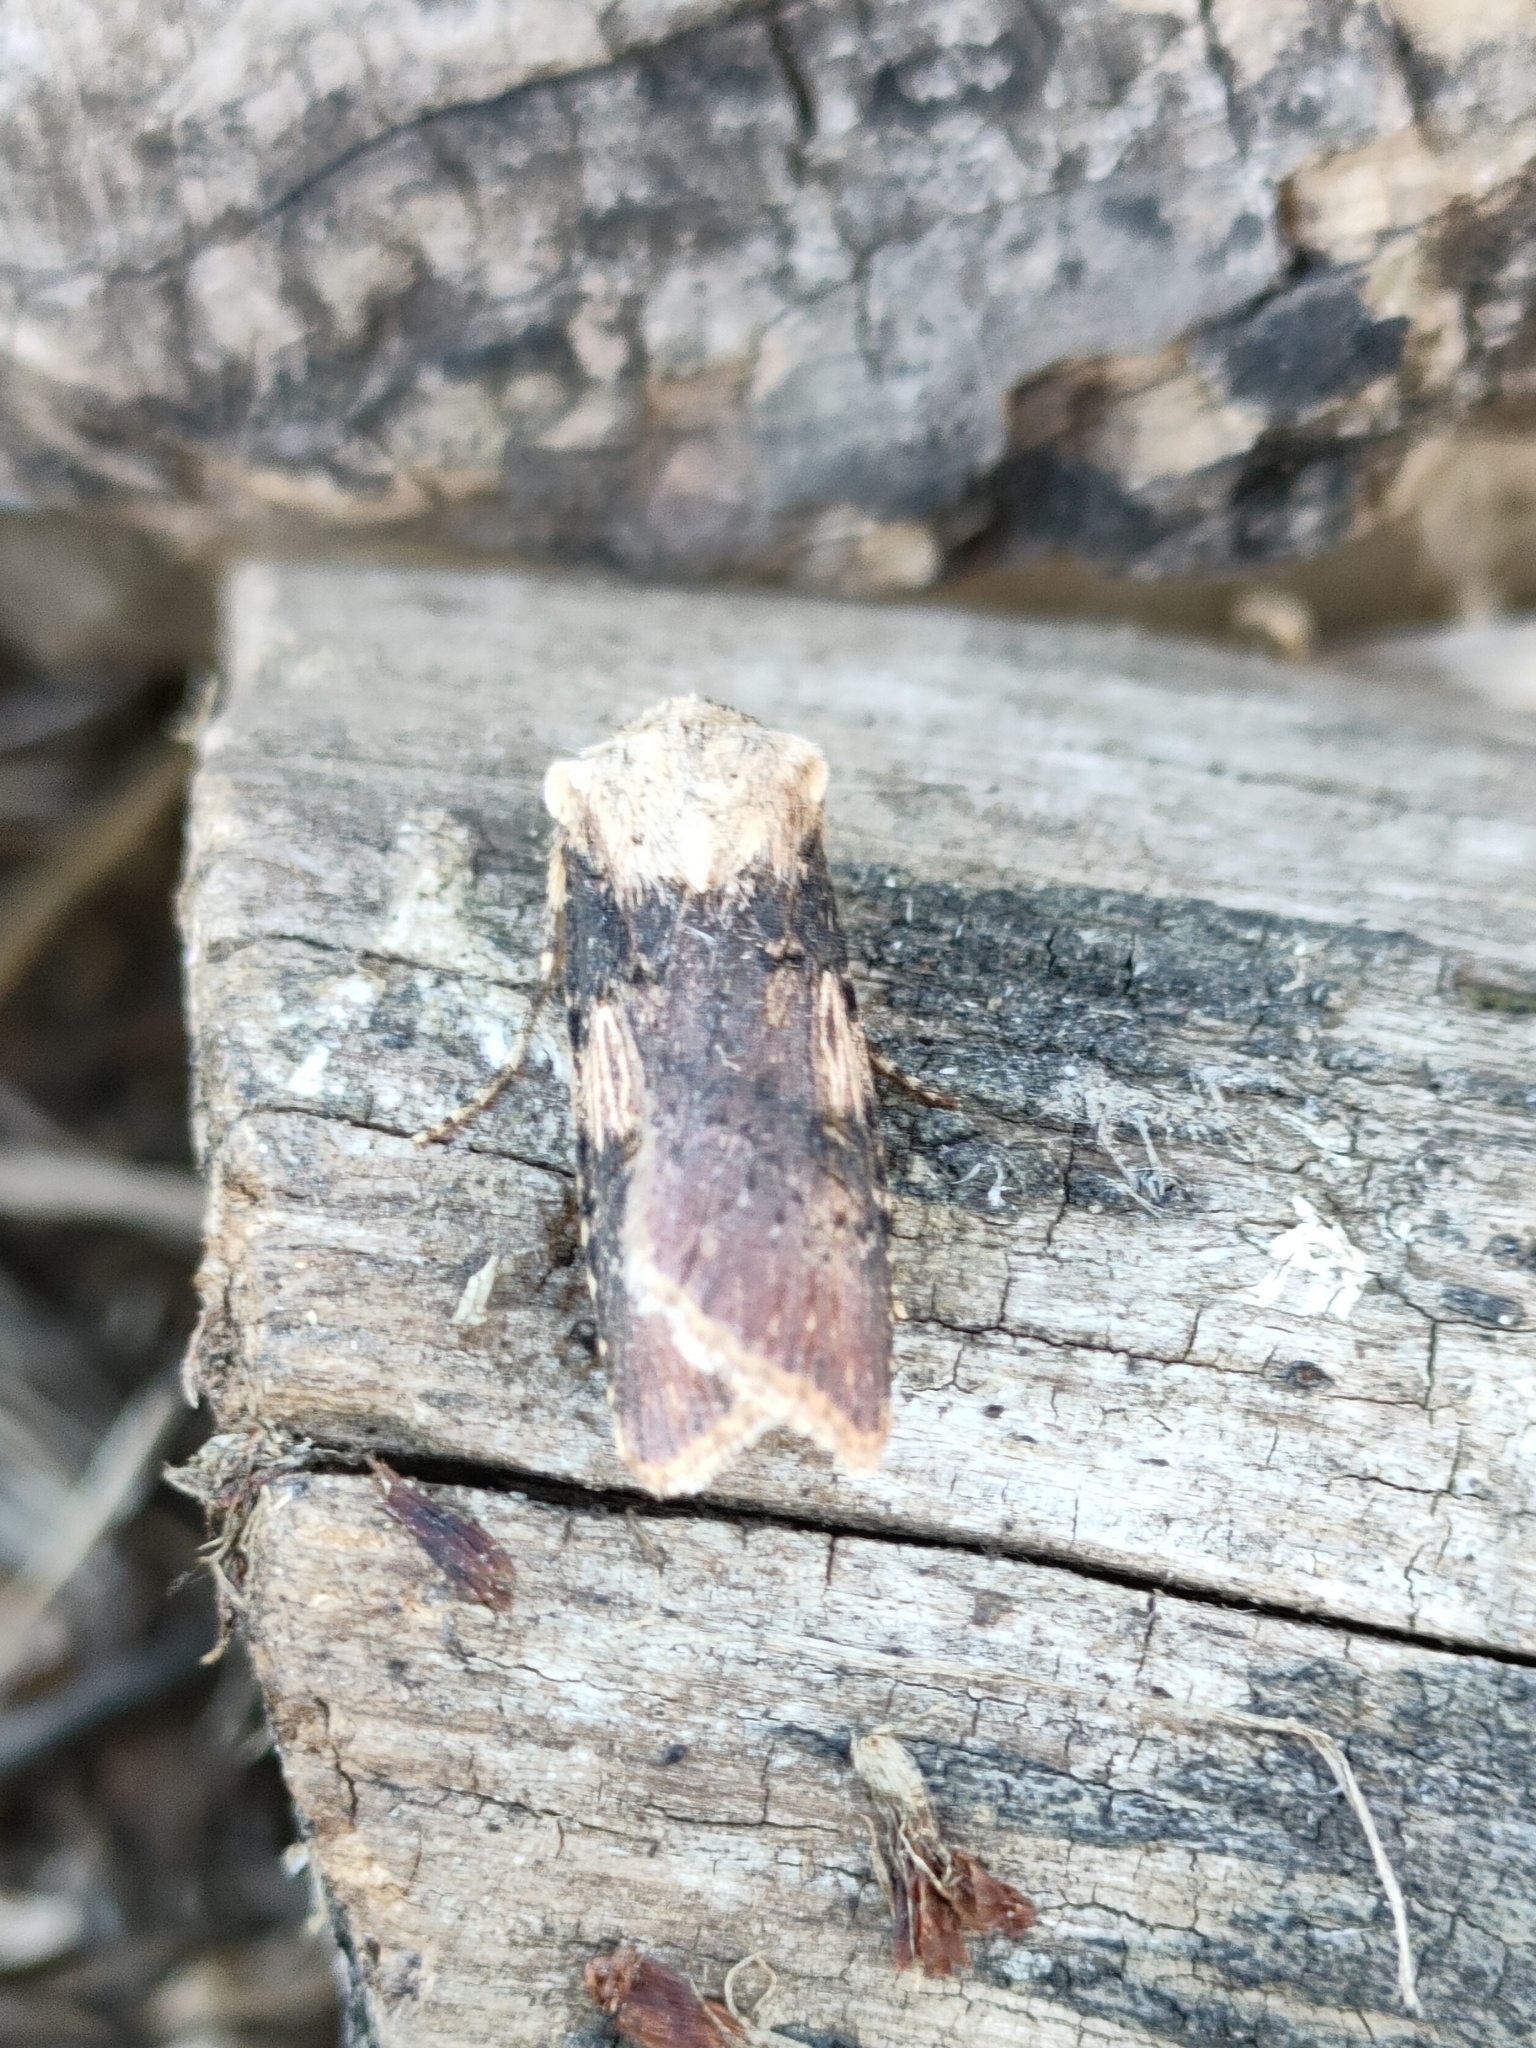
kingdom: Animalia
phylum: Arthropoda
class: Insecta
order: Lepidoptera
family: Noctuidae
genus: Agrotis
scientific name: Agrotis puta
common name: Shuttle-shaped dart
